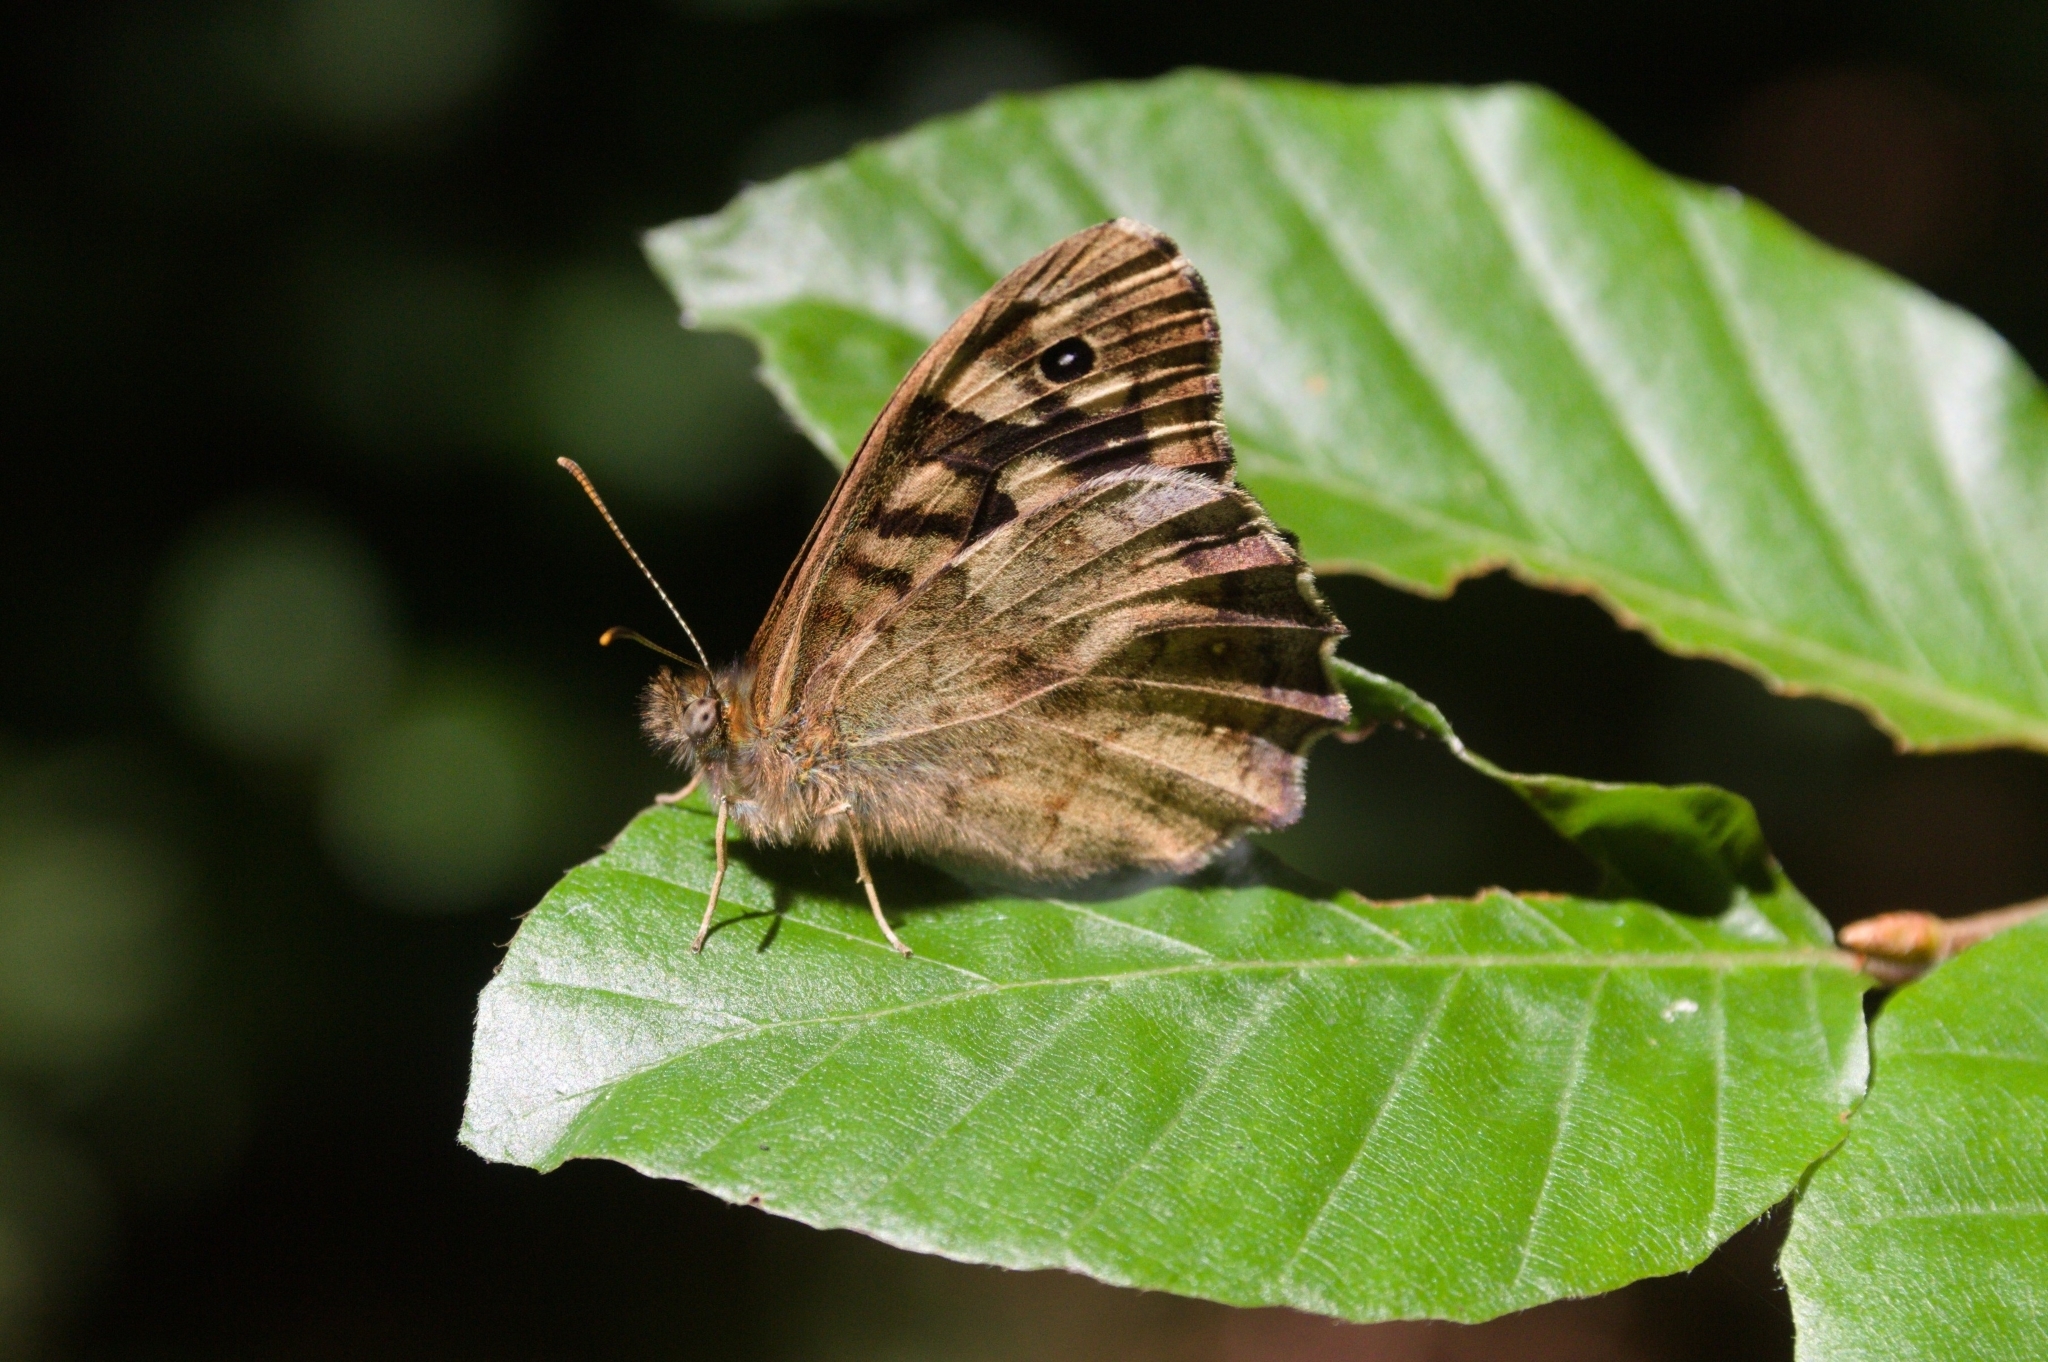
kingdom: Animalia
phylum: Arthropoda
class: Insecta
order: Lepidoptera
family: Nymphalidae
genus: Pararge
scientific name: Pararge aegeria
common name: Speckled wood
